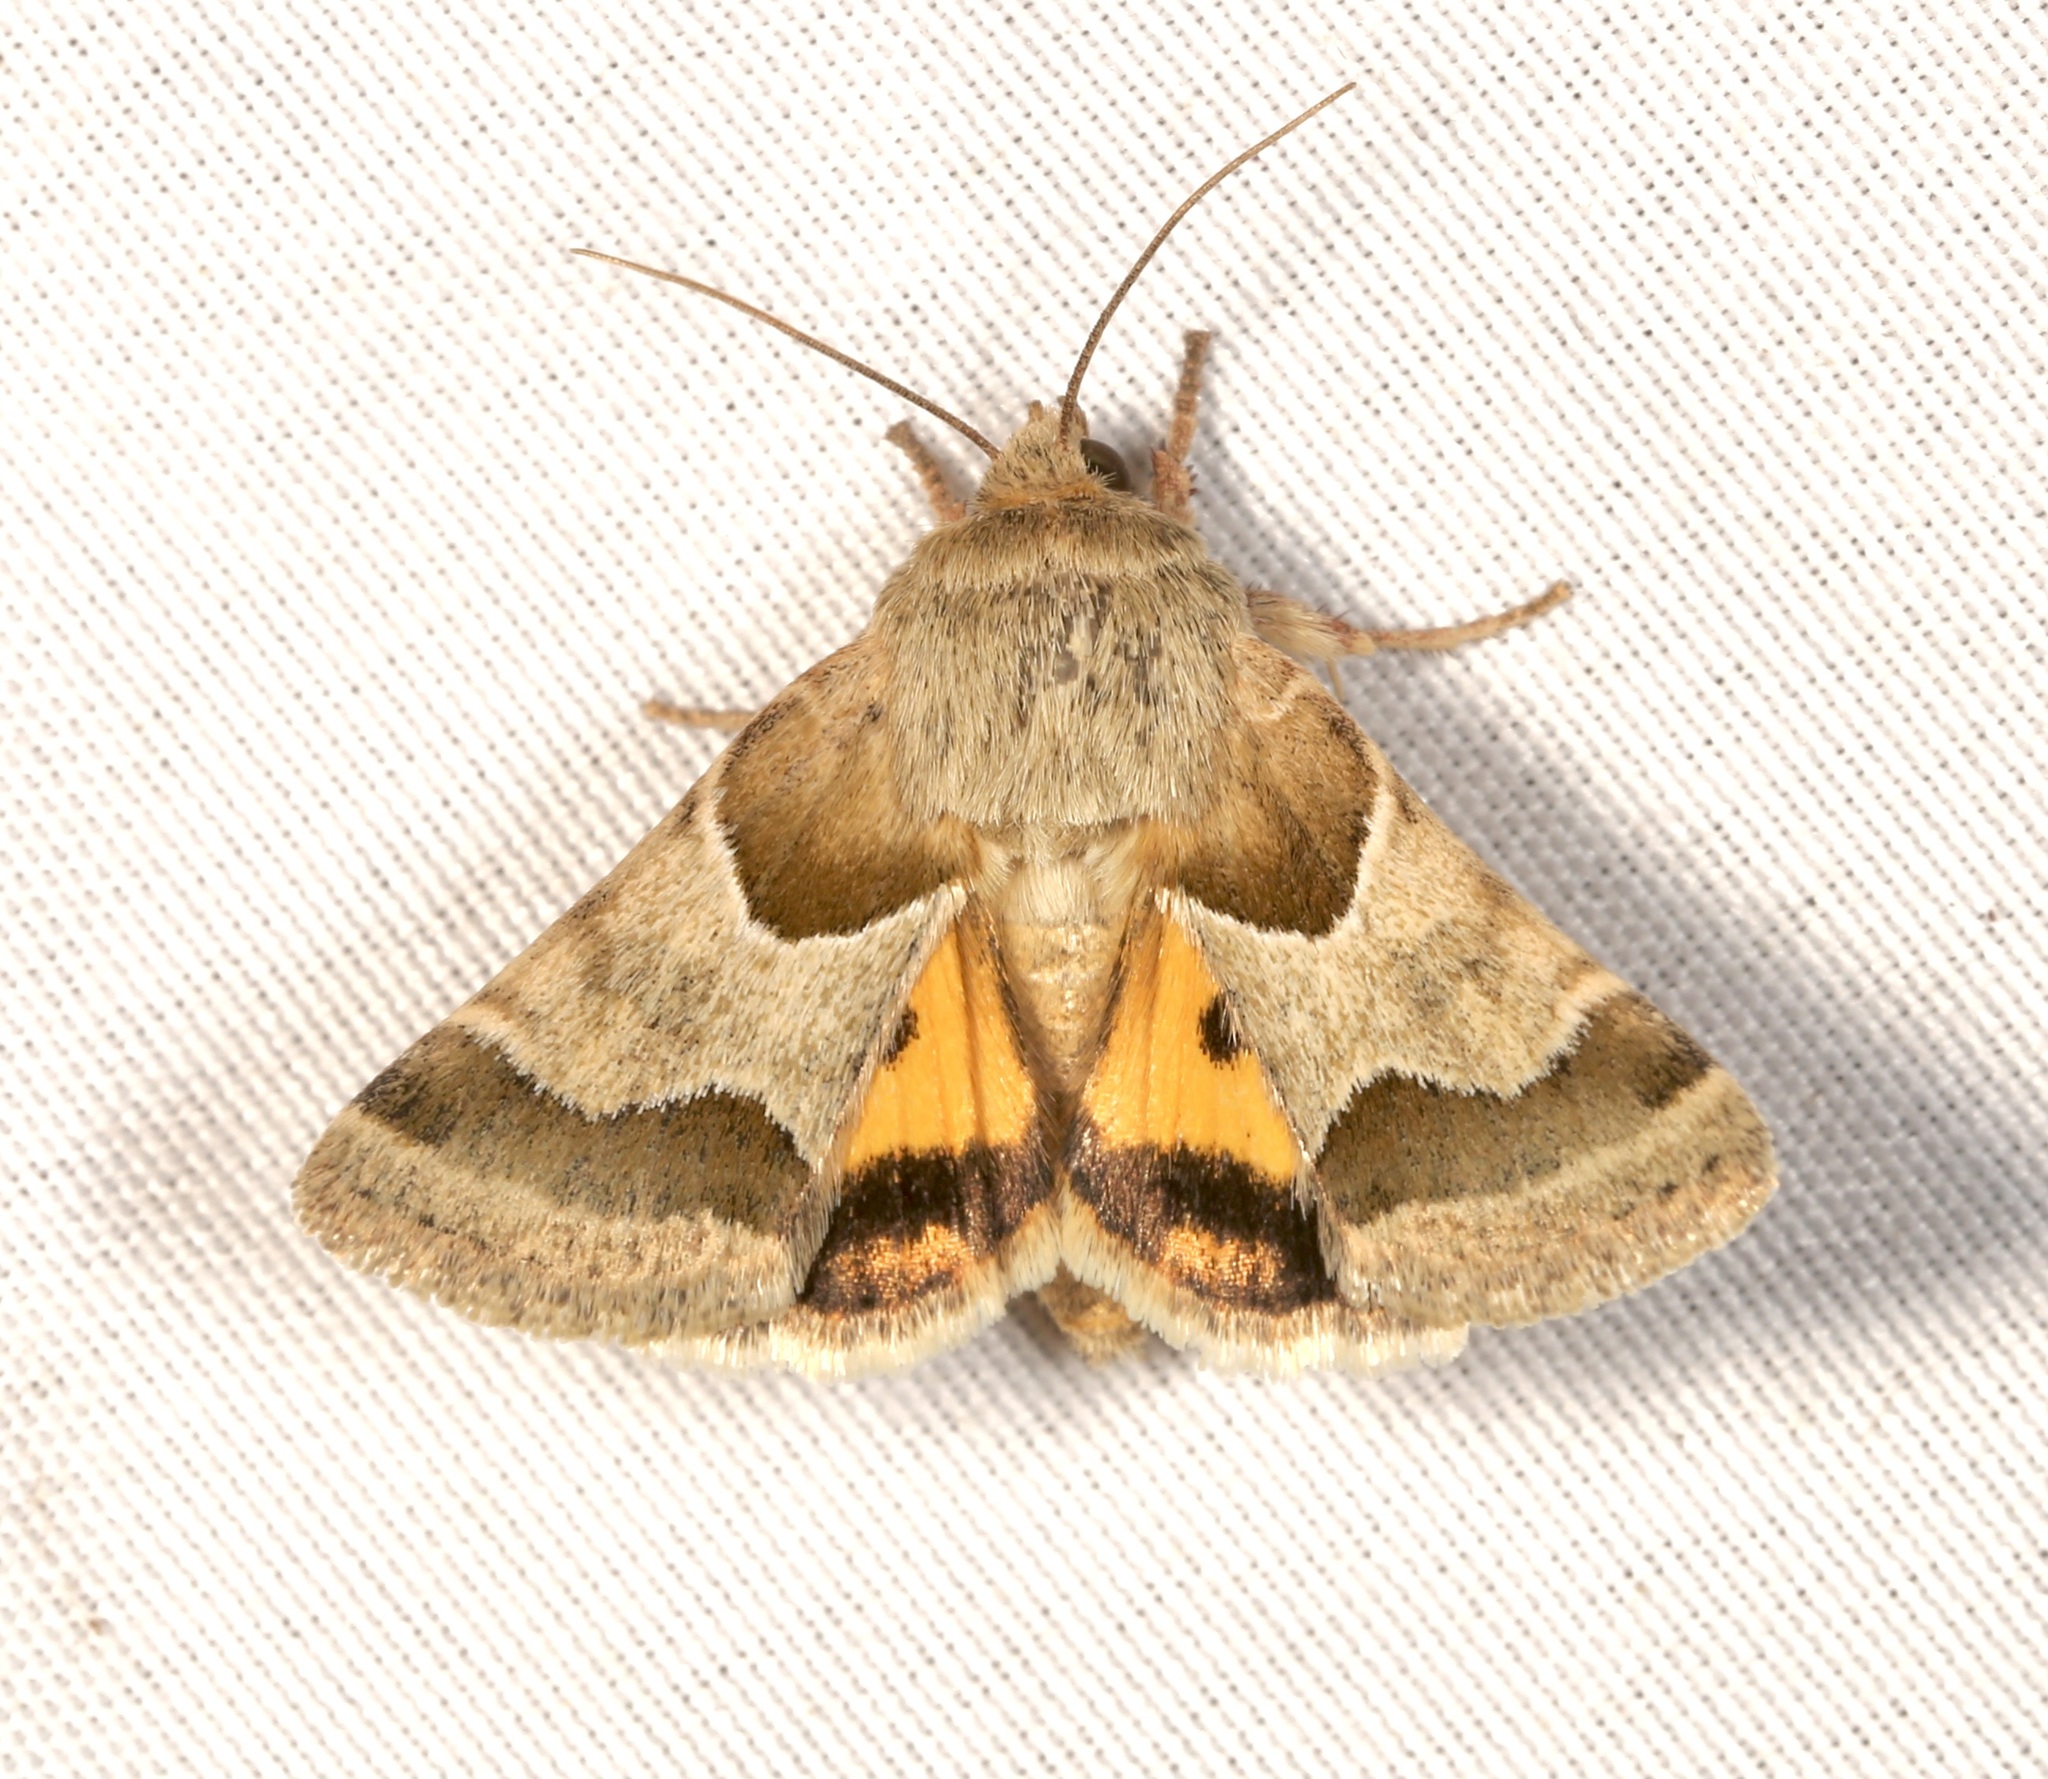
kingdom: Animalia
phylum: Arthropoda
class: Insecta
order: Lepidoptera
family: Noctuidae
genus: Schinia
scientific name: Schinia jaguarina
